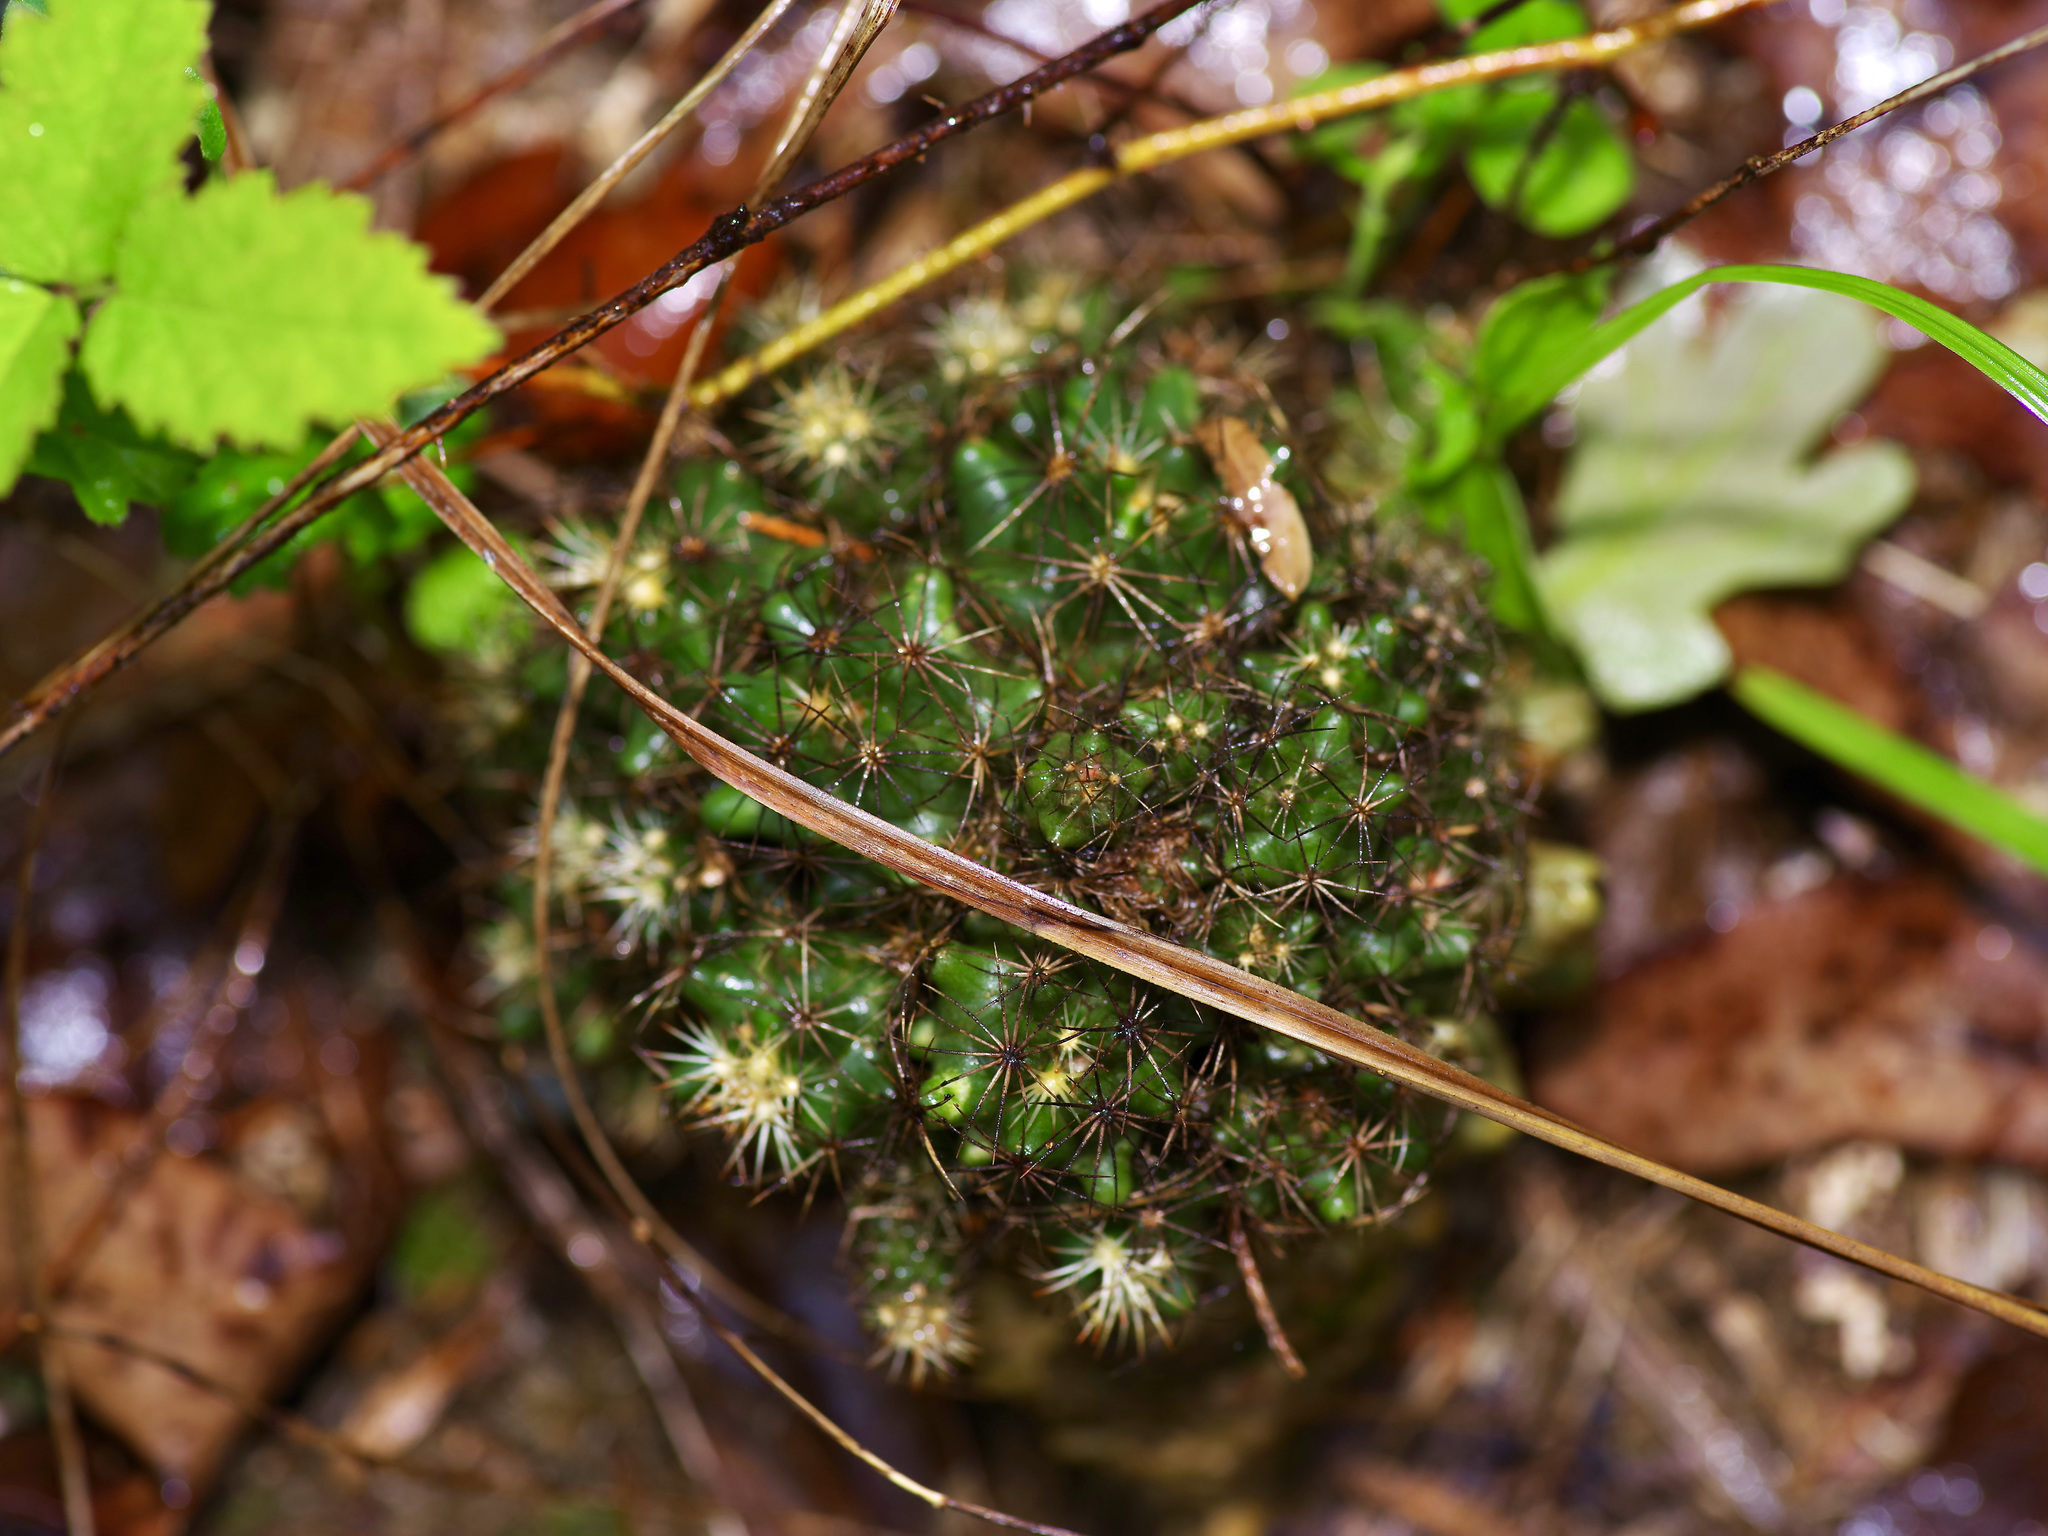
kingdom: Plantae
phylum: Tracheophyta
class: Magnoliopsida
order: Caryophyllales
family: Cactaceae
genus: Pelecyphora
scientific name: Pelecyphora missouriensis
